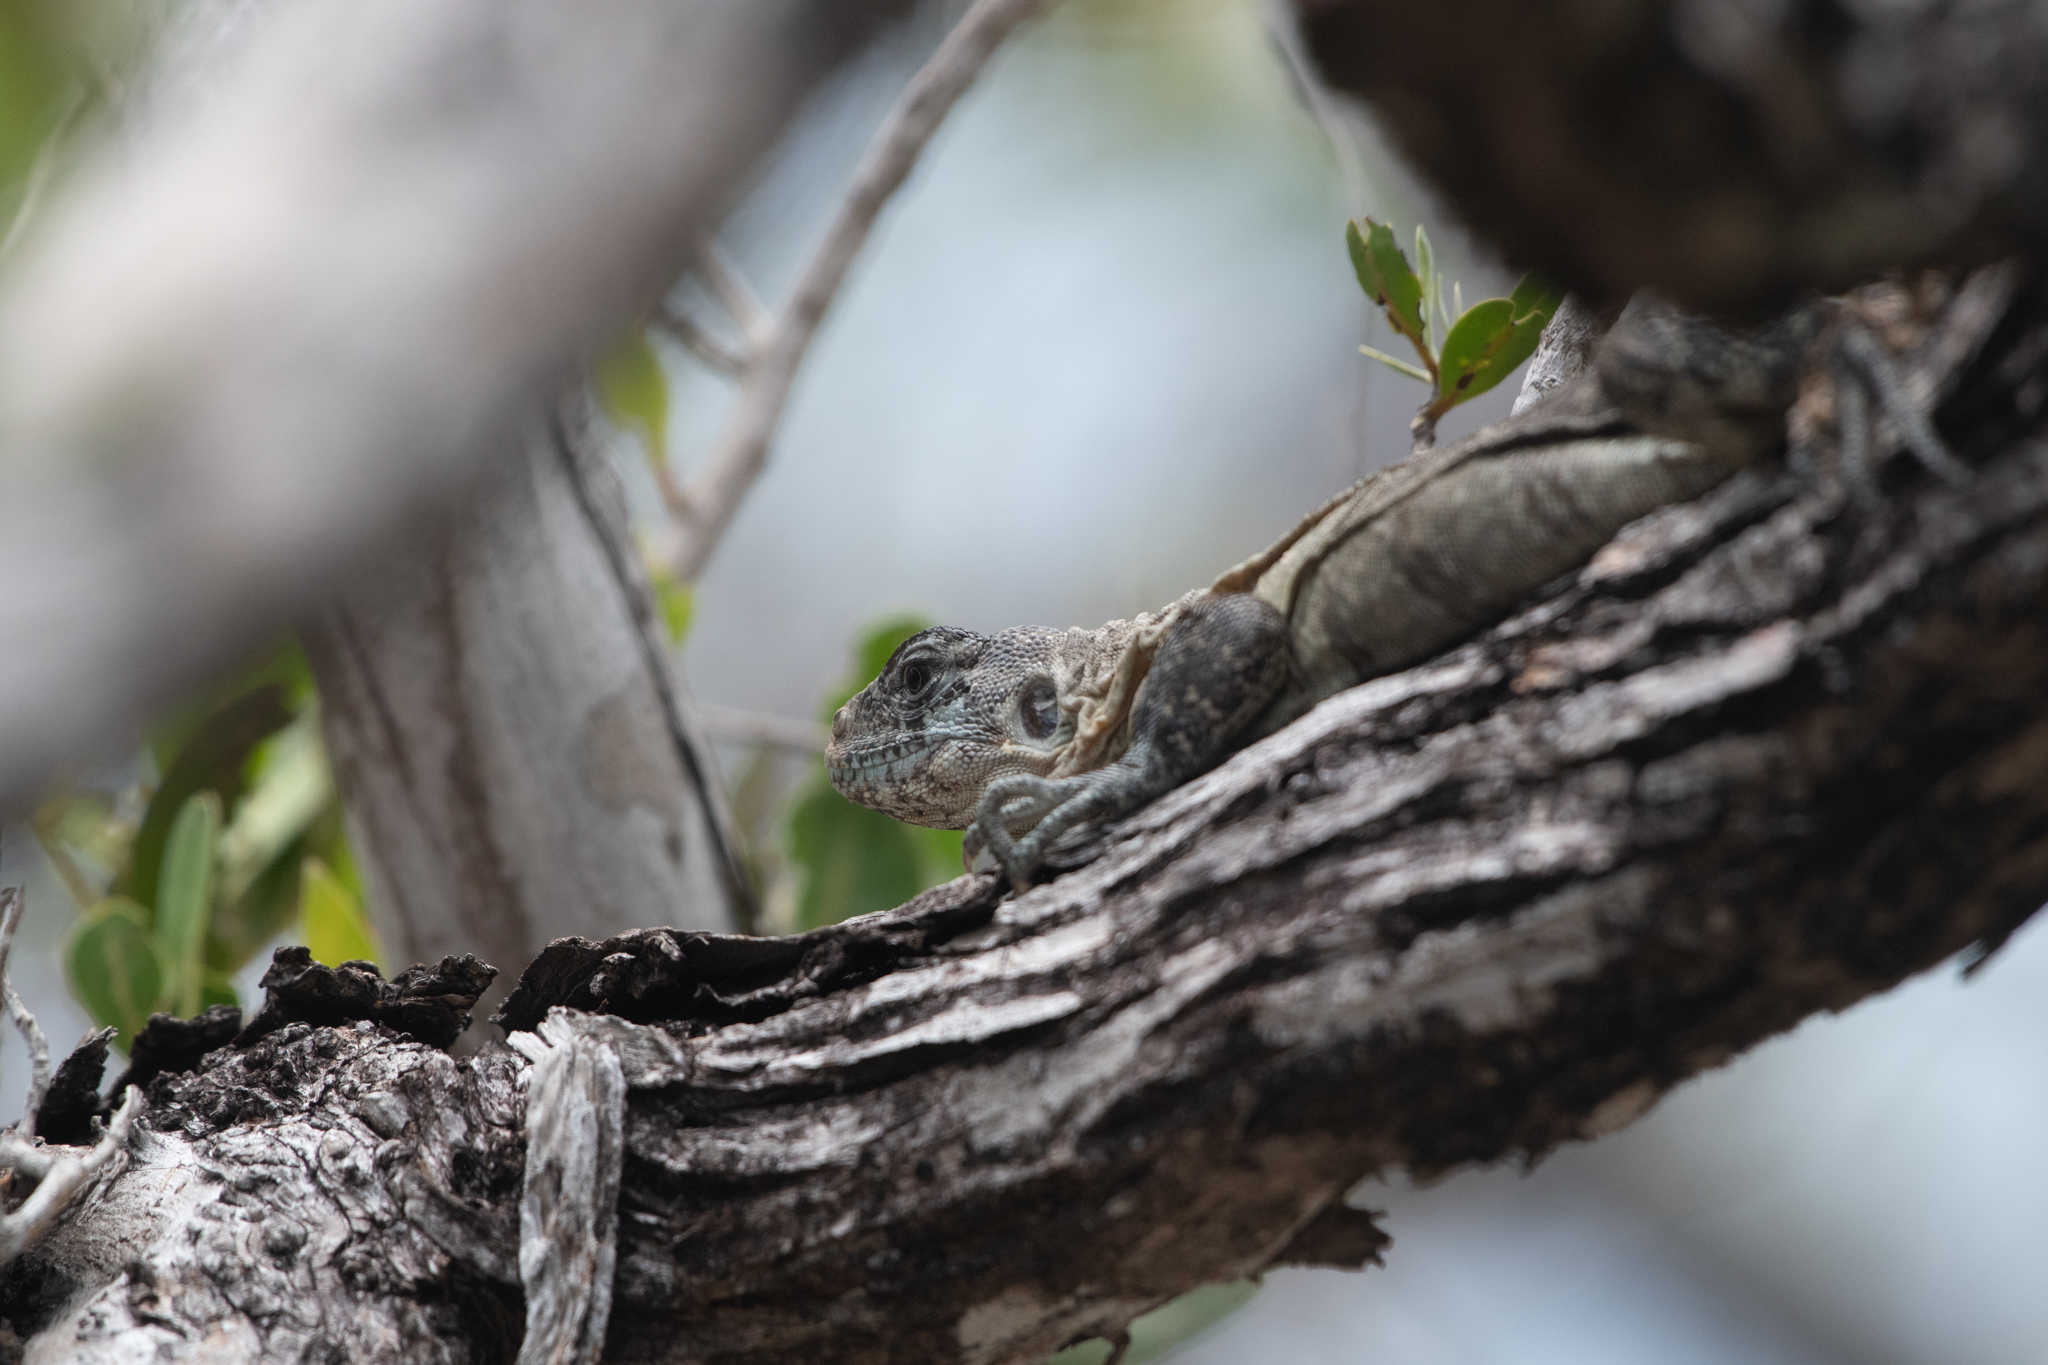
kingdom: Animalia
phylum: Chordata
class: Squamata
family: Iguanidae
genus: Ctenosaura
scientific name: Ctenosaura bakeri
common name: Utila spiny-tailed iguana
